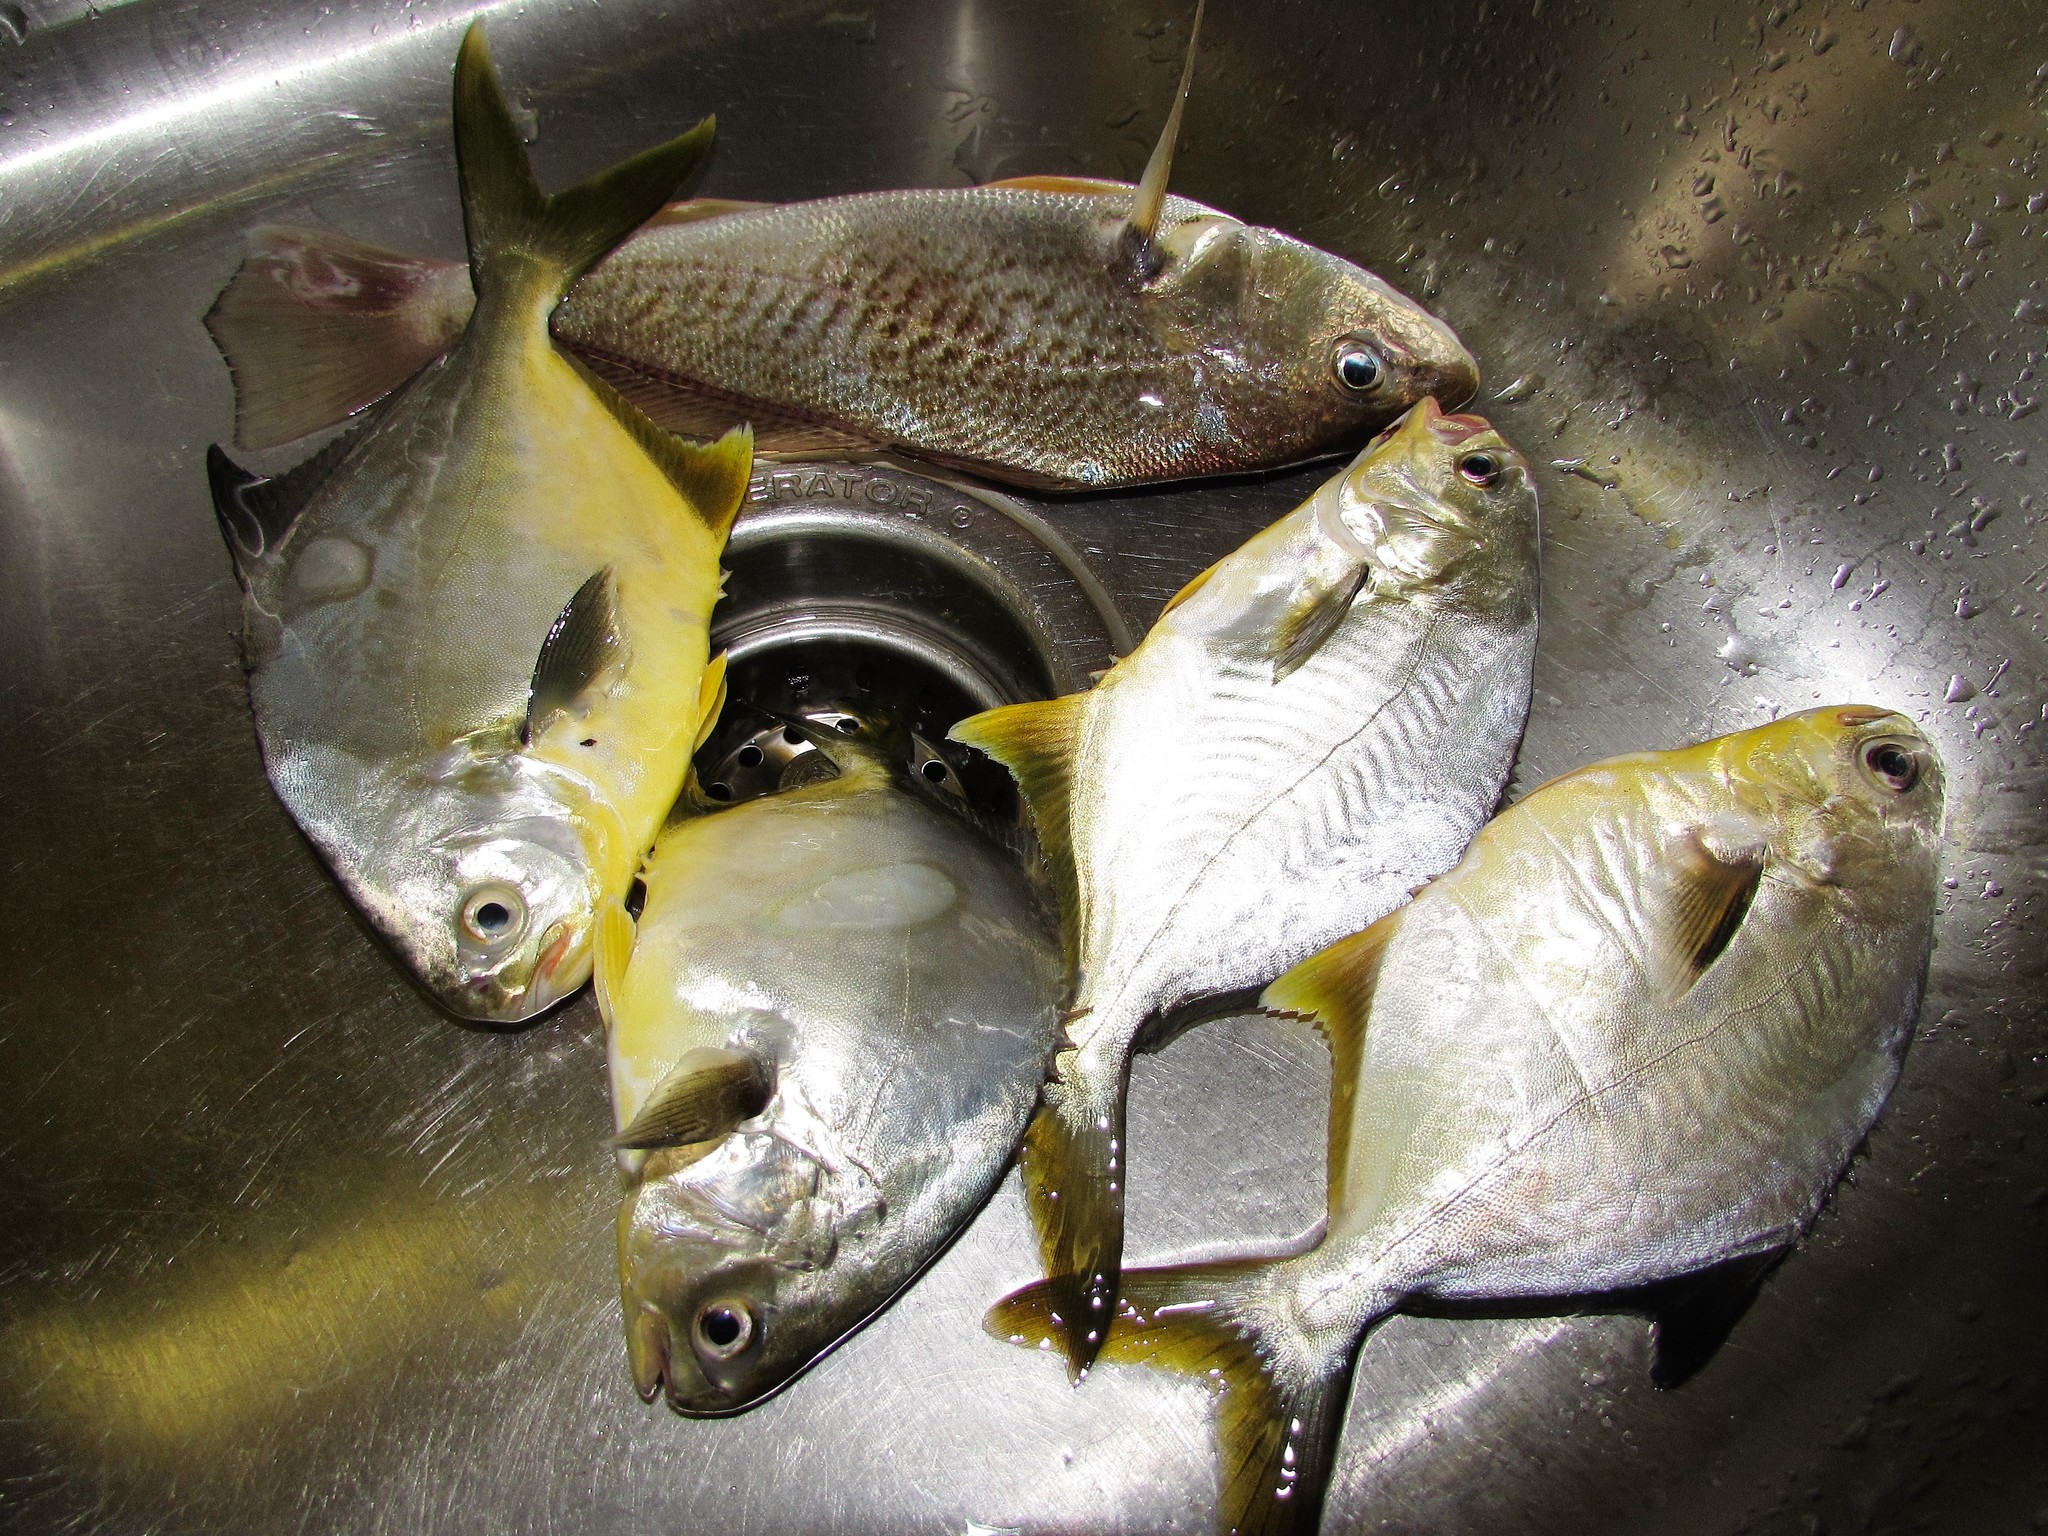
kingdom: Animalia
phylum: Chordata
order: Perciformes
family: Carangidae
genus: Trachinotus
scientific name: Trachinotus carolinus
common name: Florida pompano
